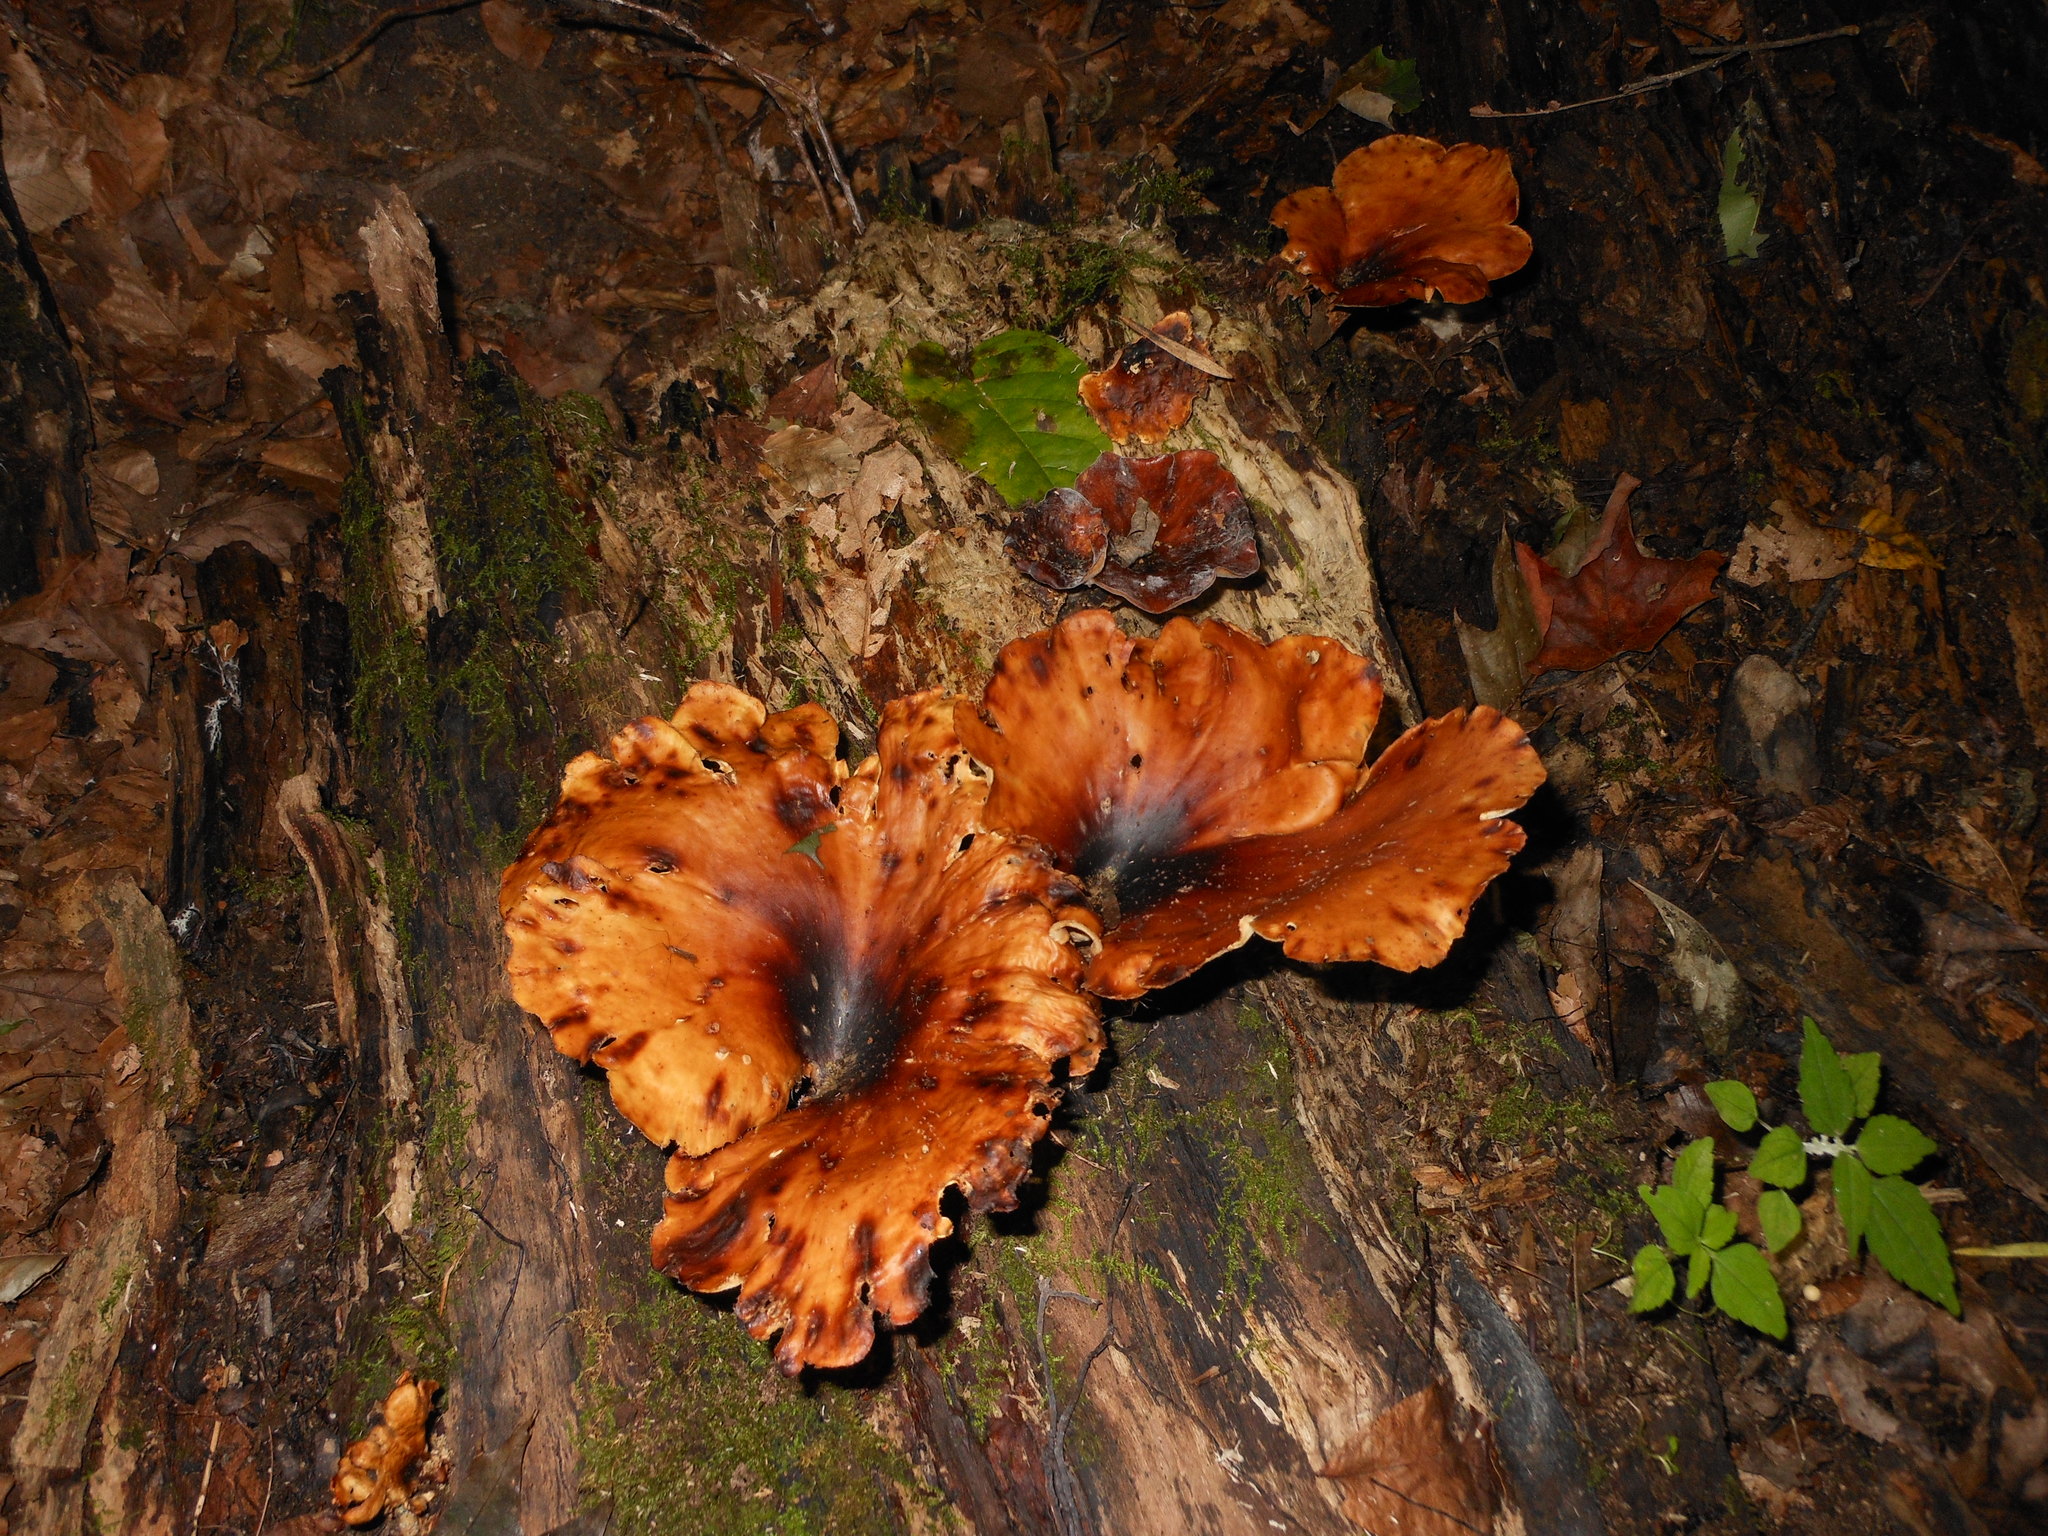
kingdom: Fungi
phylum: Basidiomycota
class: Agaricomycetes
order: Polyporales
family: Polyporaceae
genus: Picipes
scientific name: Picipes badius
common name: Bay polypore
